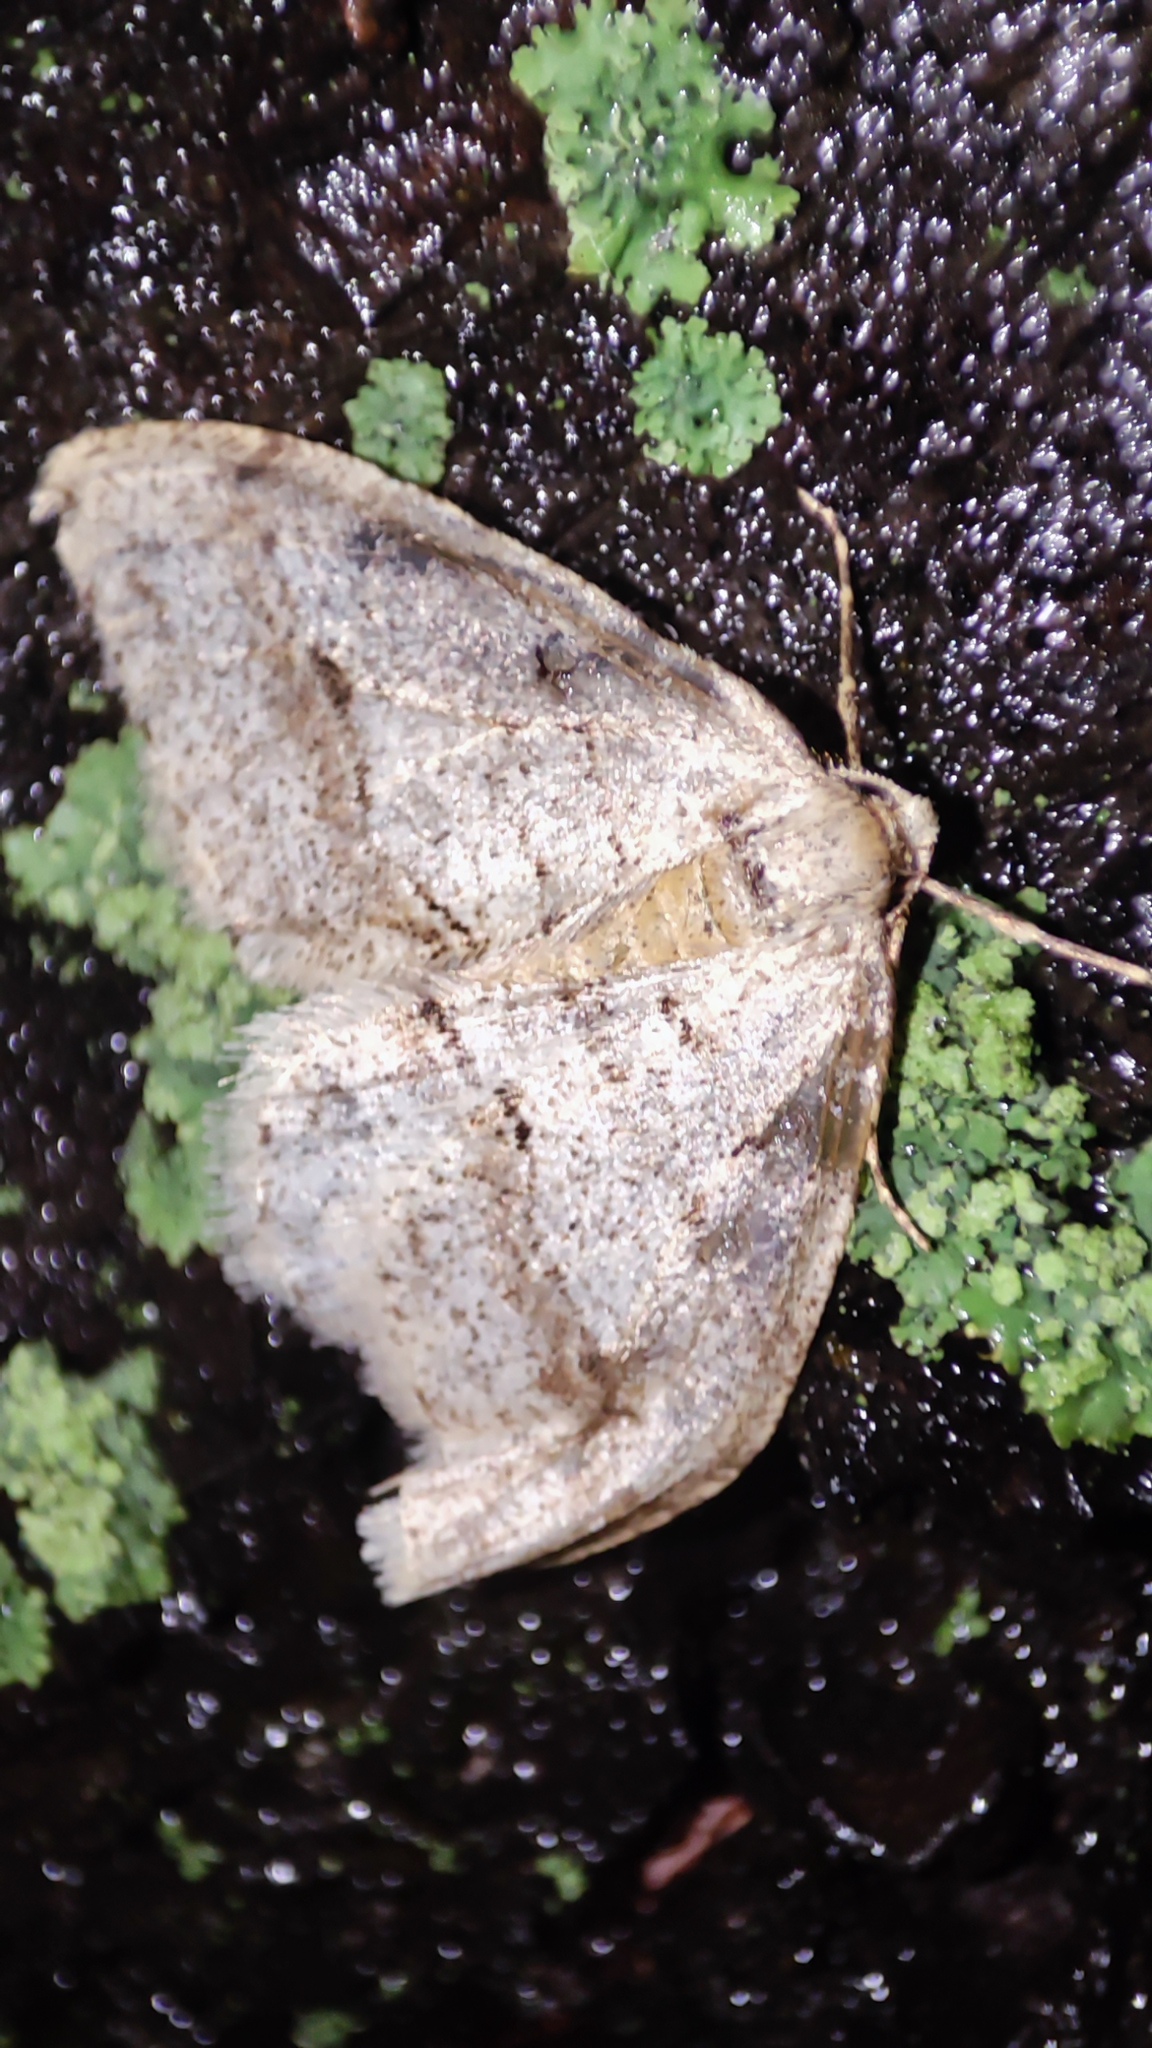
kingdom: Animalia
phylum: Arthropoda
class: Insecta
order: Lepidoptera
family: Geometridae
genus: Larerannis
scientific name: Larerannis orthogrammaria
